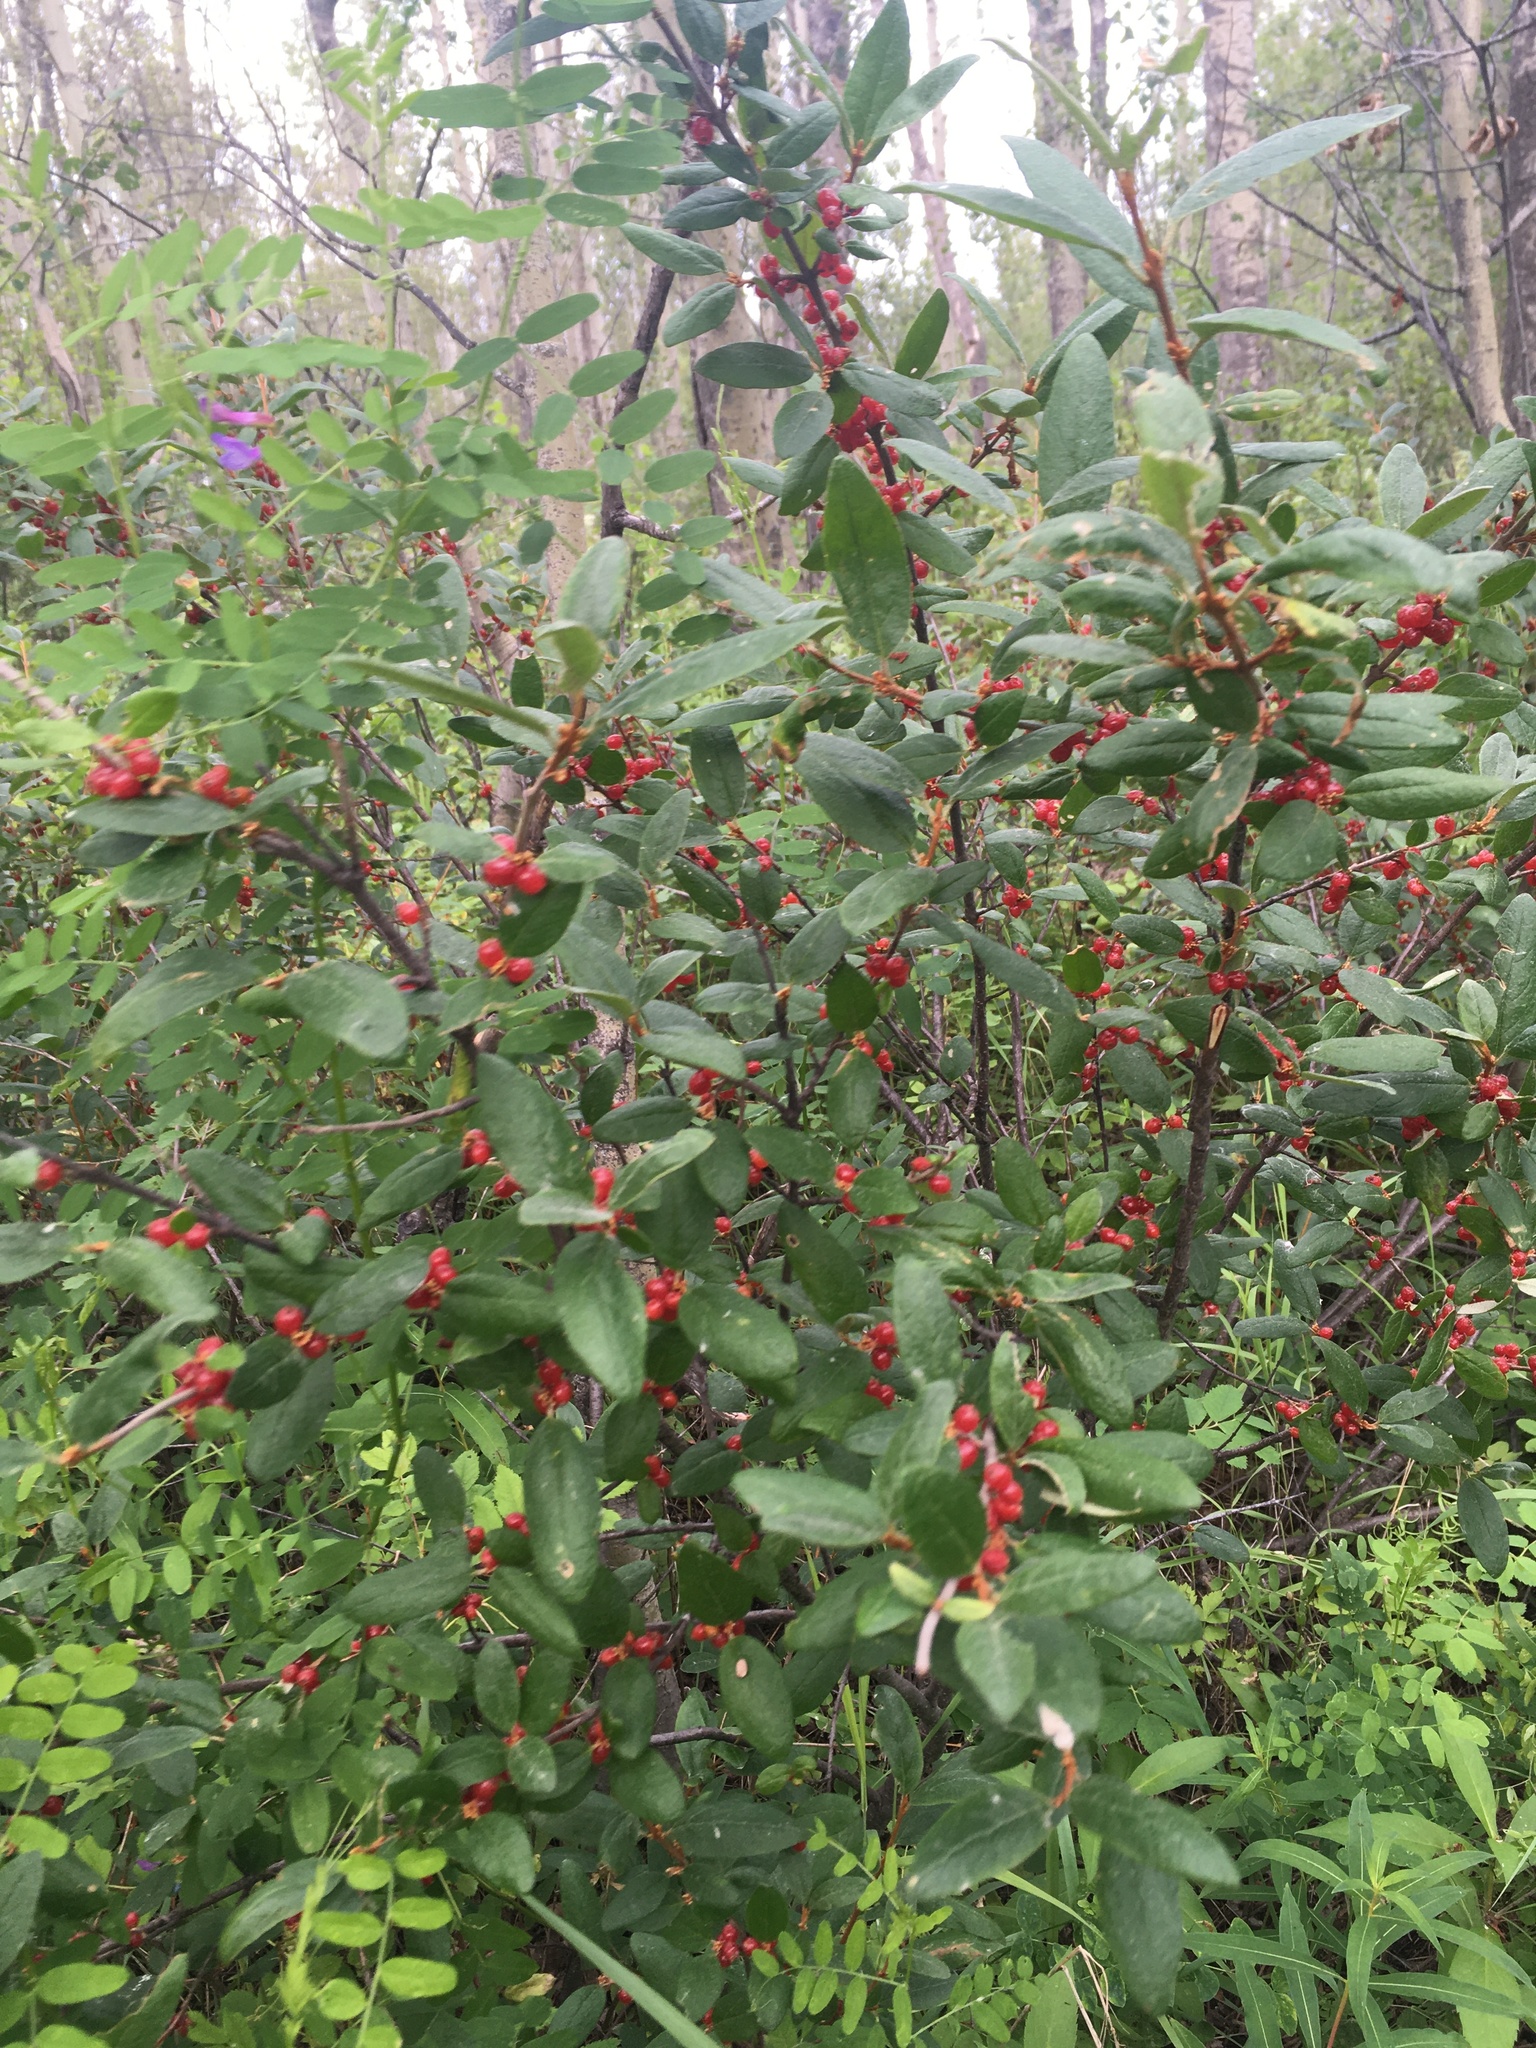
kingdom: Plantae
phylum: Tracheophyta
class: Magnoliopsida
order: Rosales
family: Elaeagnaceae
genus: Shepherdia
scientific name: Shepherdia canadensis
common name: Soapberry
